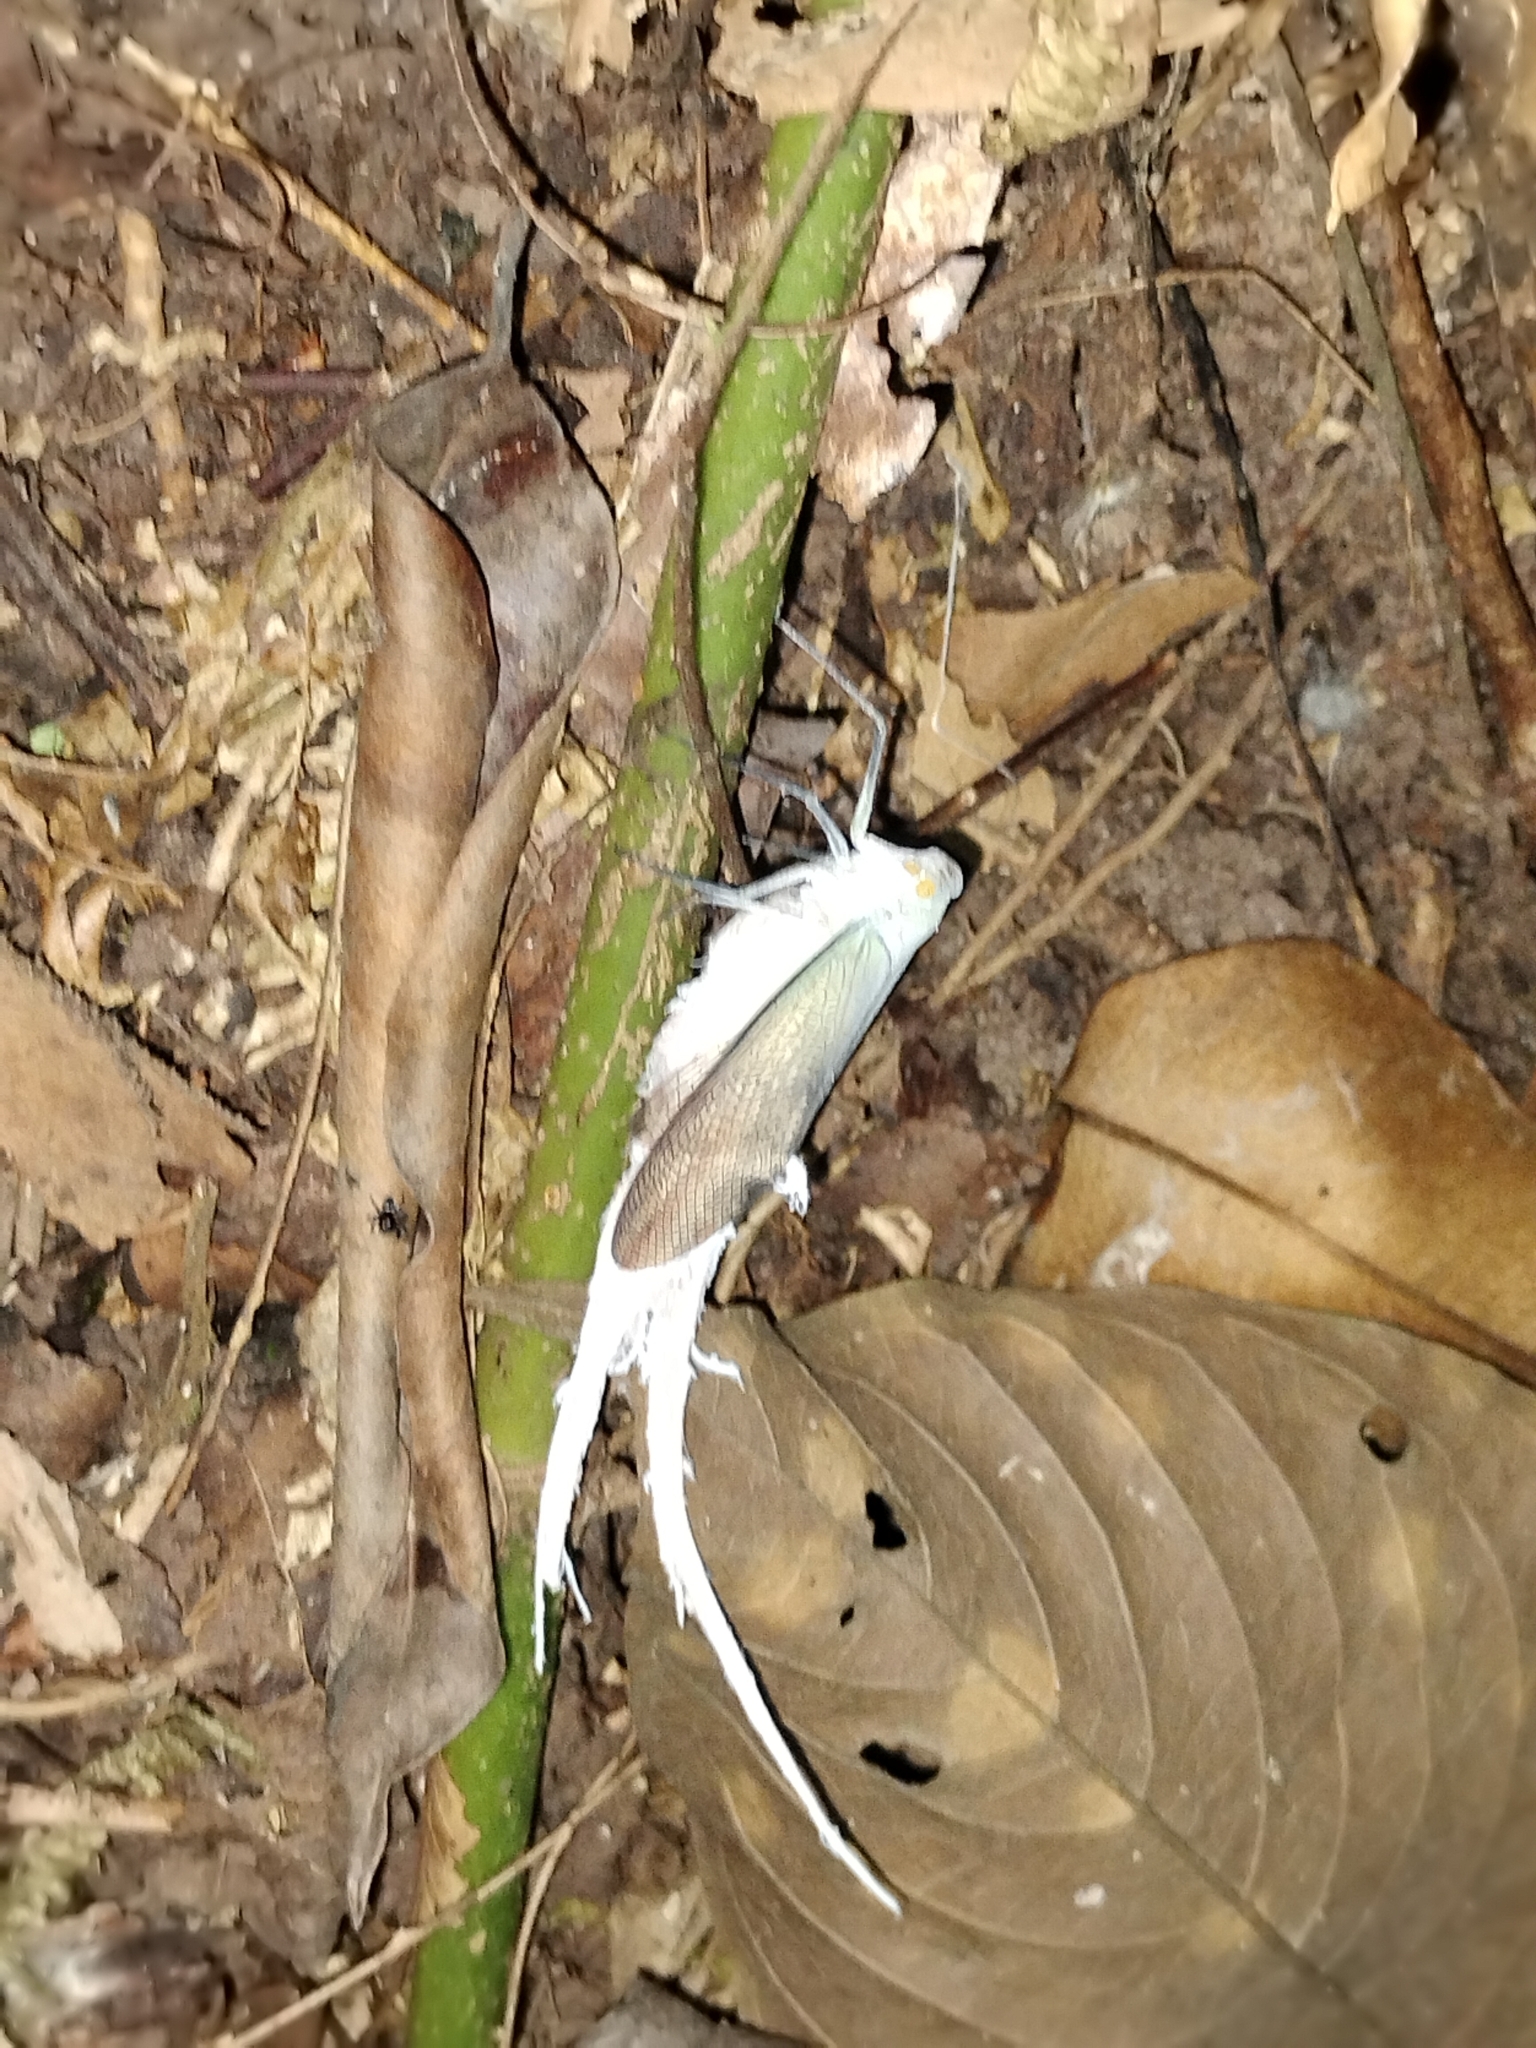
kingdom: Animalia
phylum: Arthropoda
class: Insecta
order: Hemiptera
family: Fulgoridae
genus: Pterodictya
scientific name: Pterodictya reticularis
